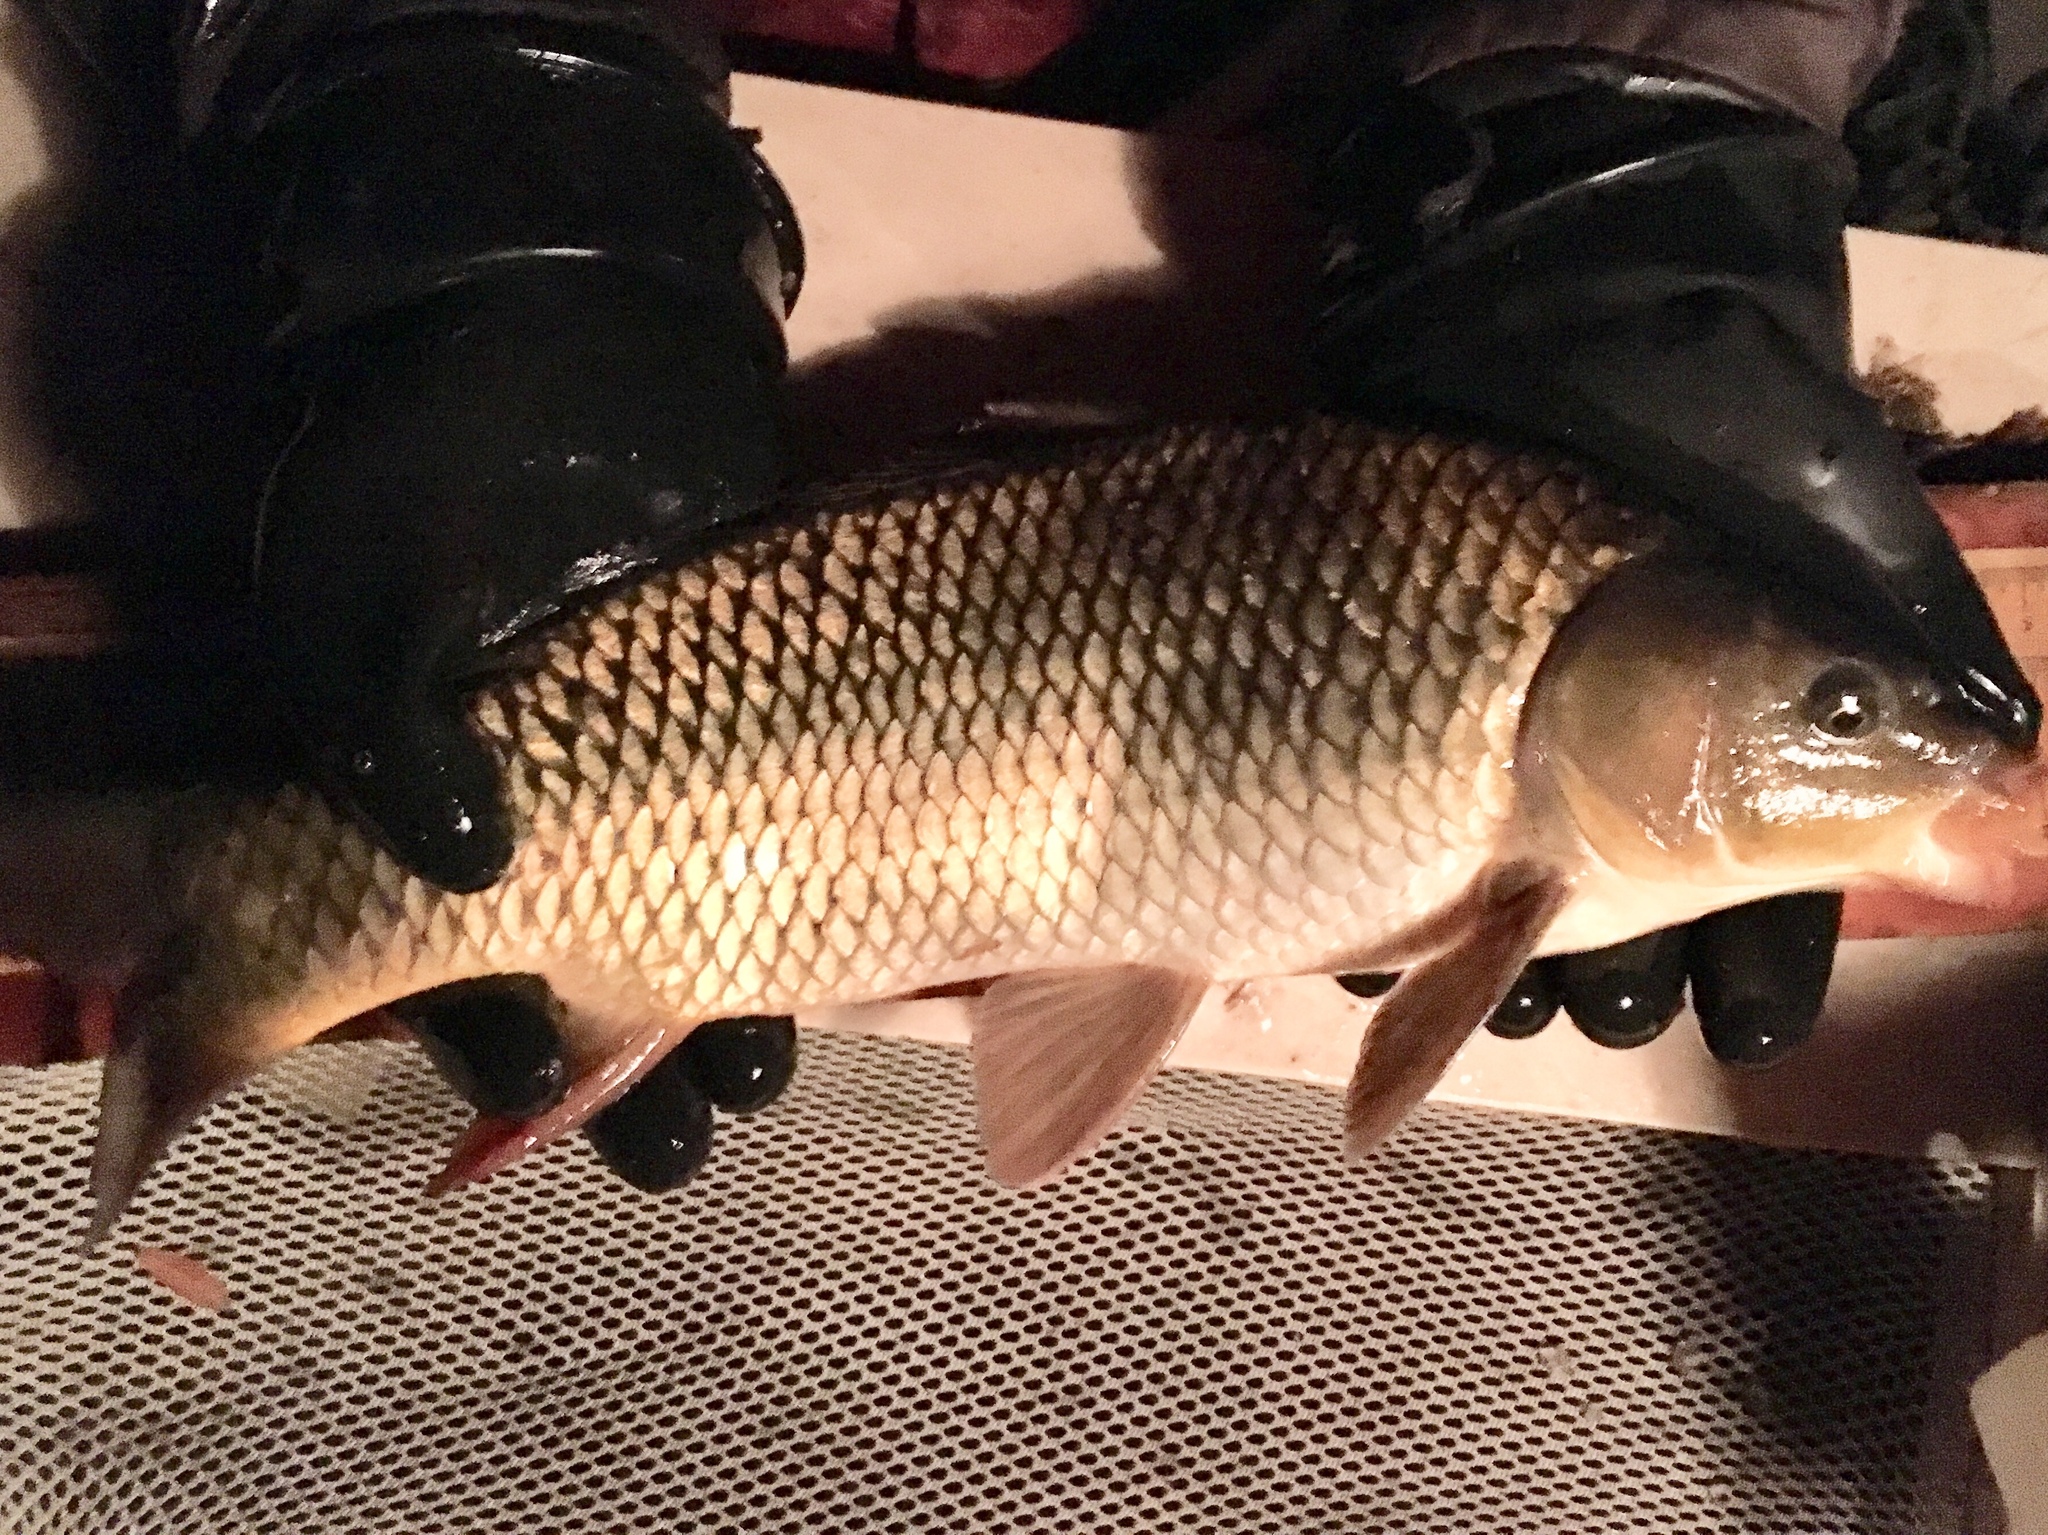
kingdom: Animalia
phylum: Chordata
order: Cypriniformes
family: Cyprinidae
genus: Cyprinus
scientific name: Cyprinus carpio
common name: Common carp
